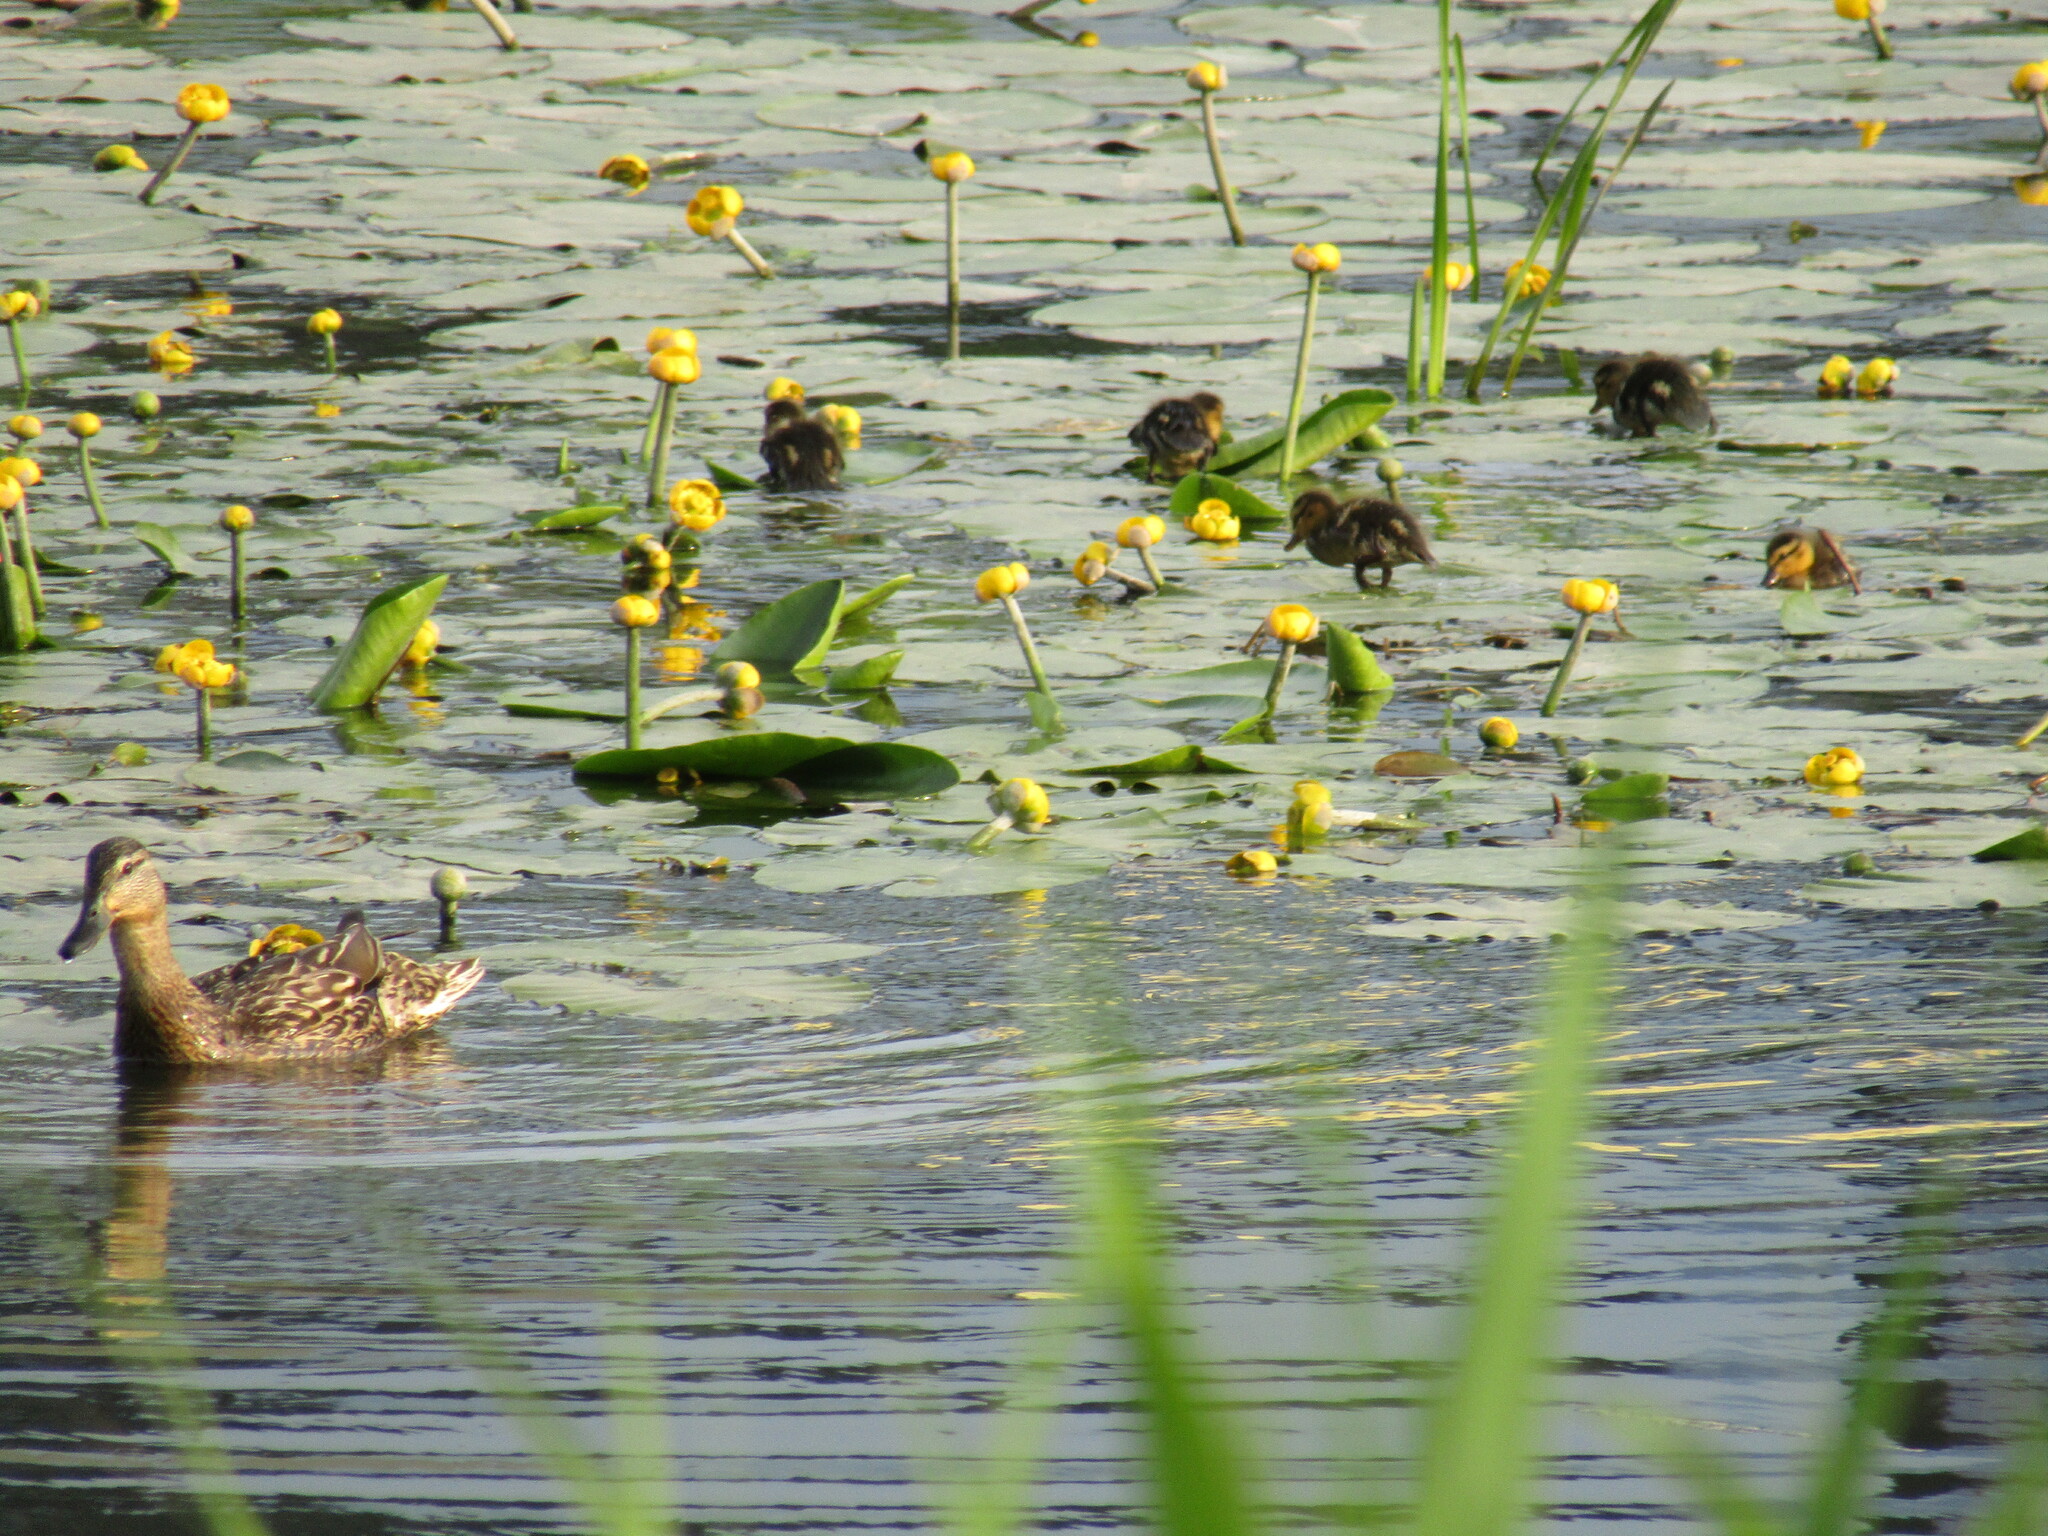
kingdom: Animalia
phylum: Chordata
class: Aves
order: Anseriformes
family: Anatidae
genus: Anas
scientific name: Anas platyrhynchos
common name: Mallard
